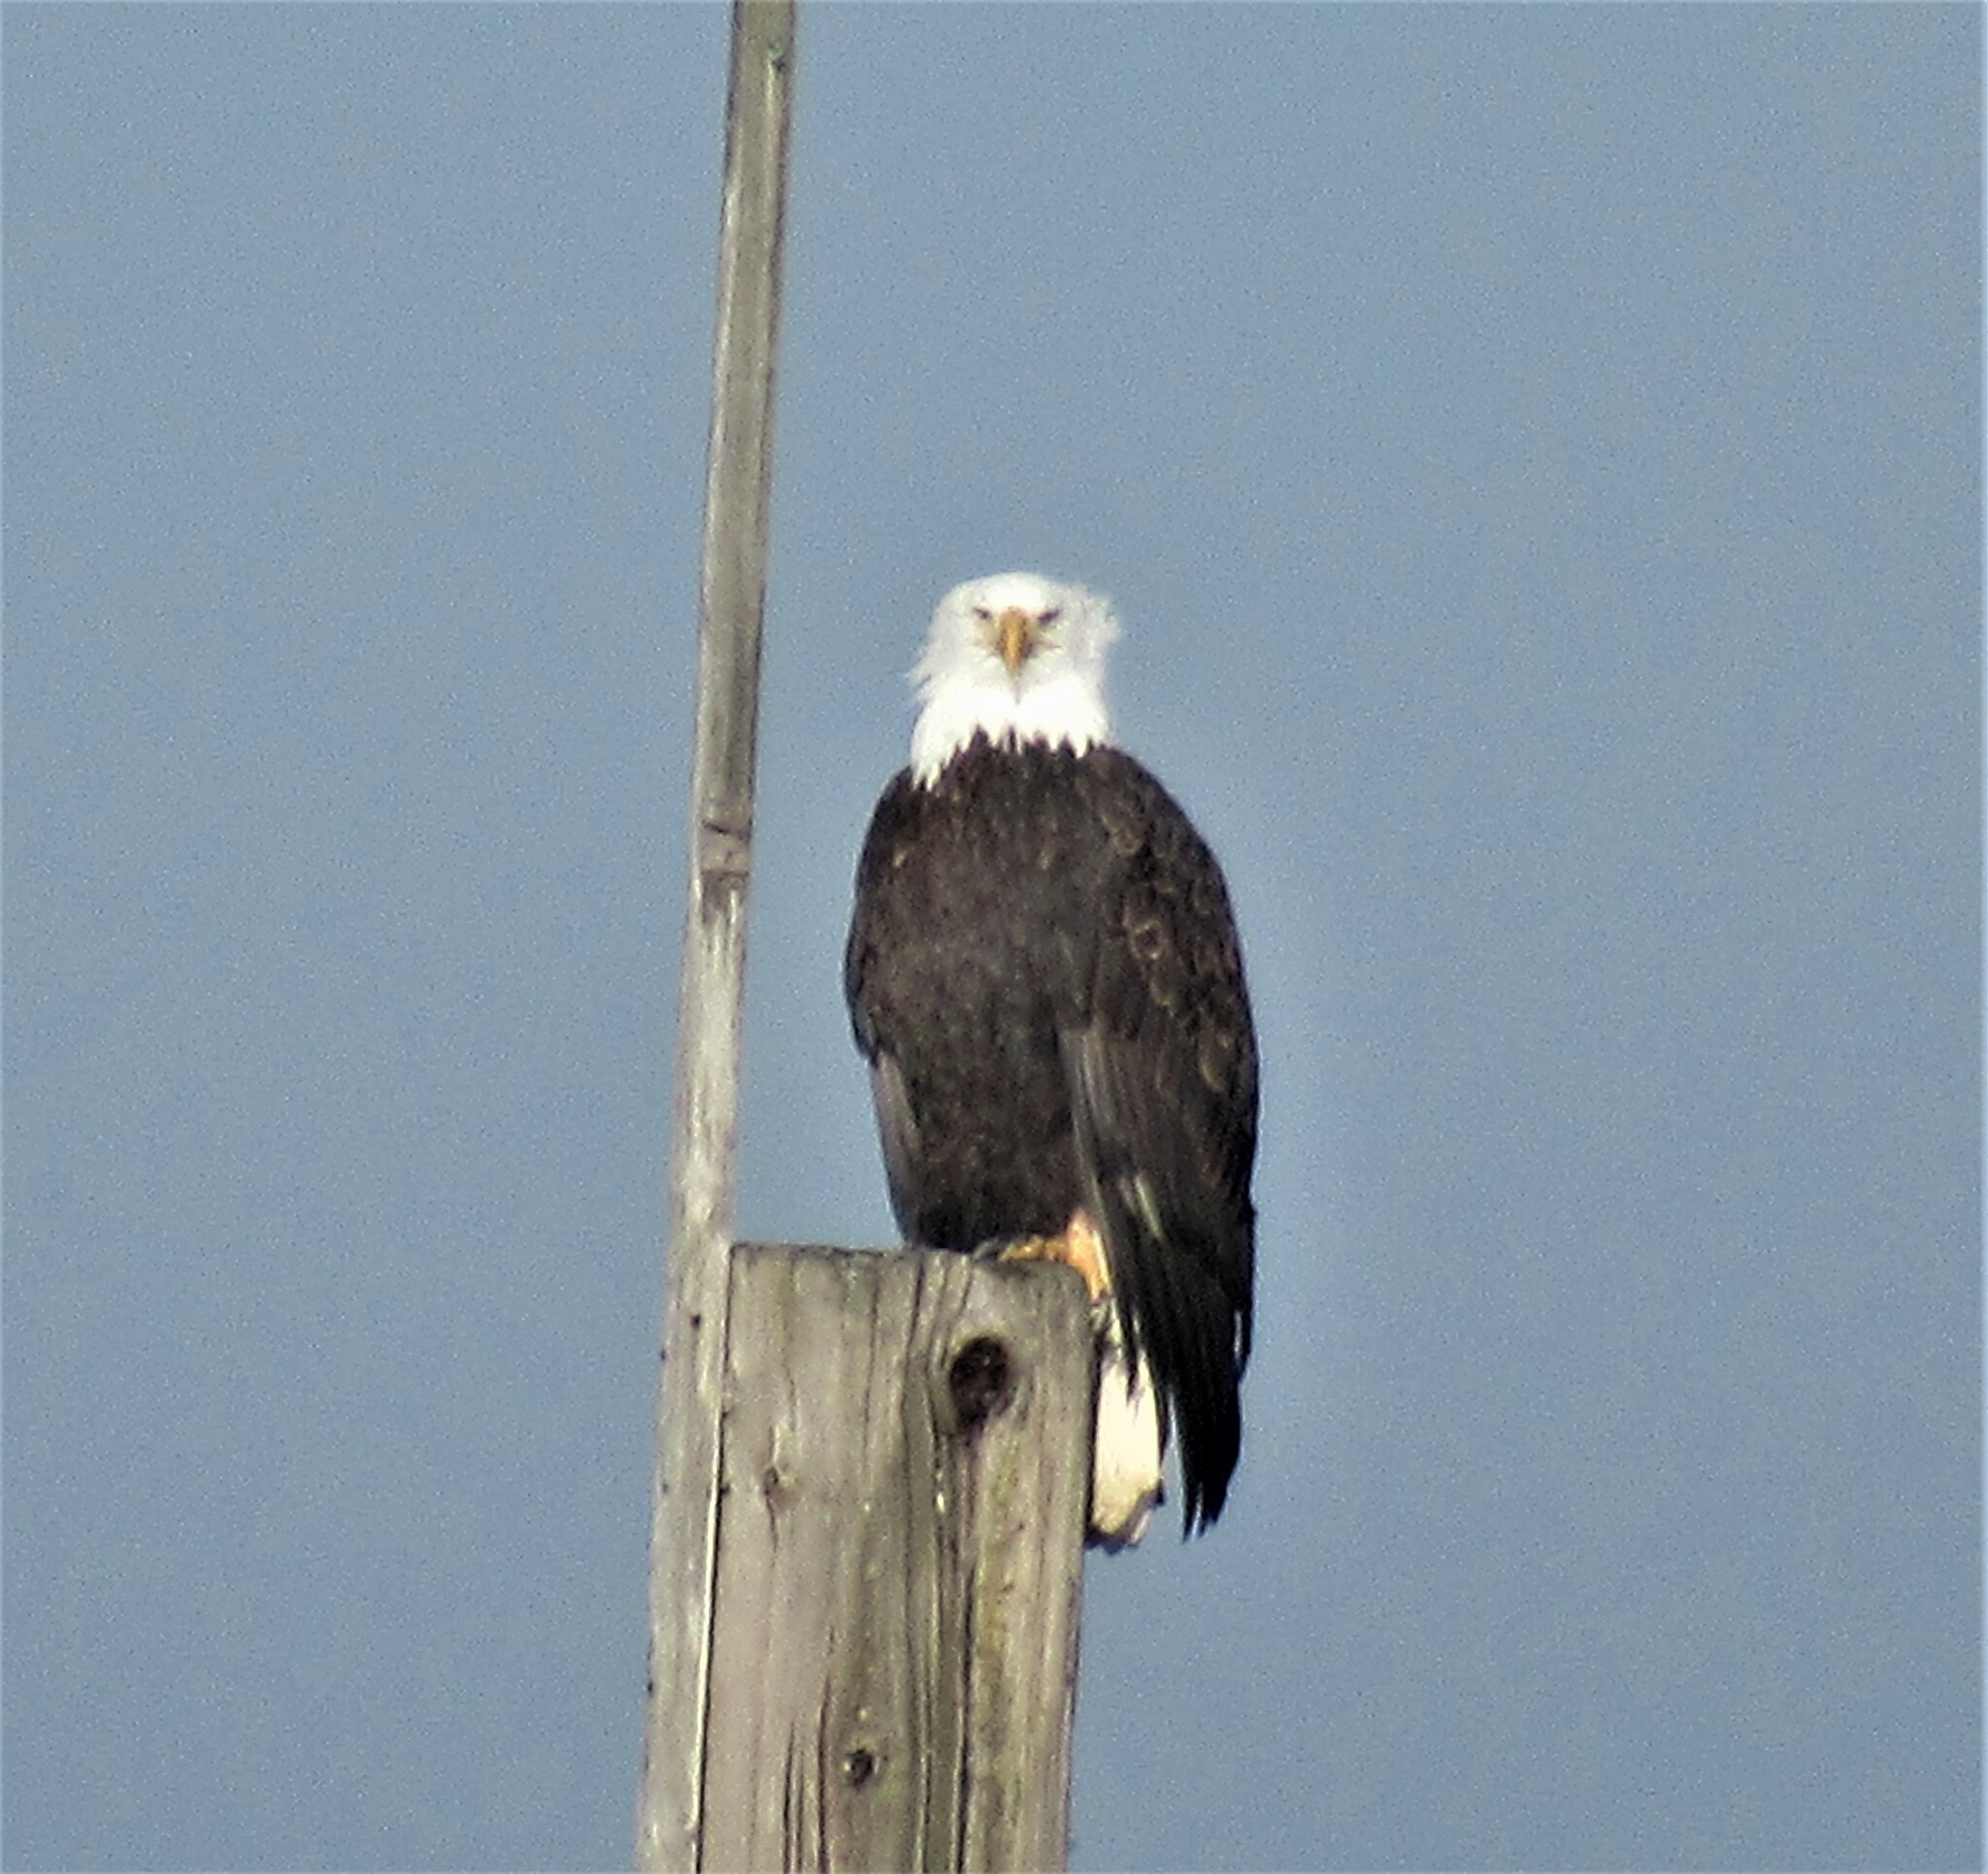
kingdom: Animalia
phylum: Chordata
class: Aves
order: Accipitriformes
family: Accipitridae
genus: Haliaeetus
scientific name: Haliaeetus leucocephalus
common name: Bald eagle
